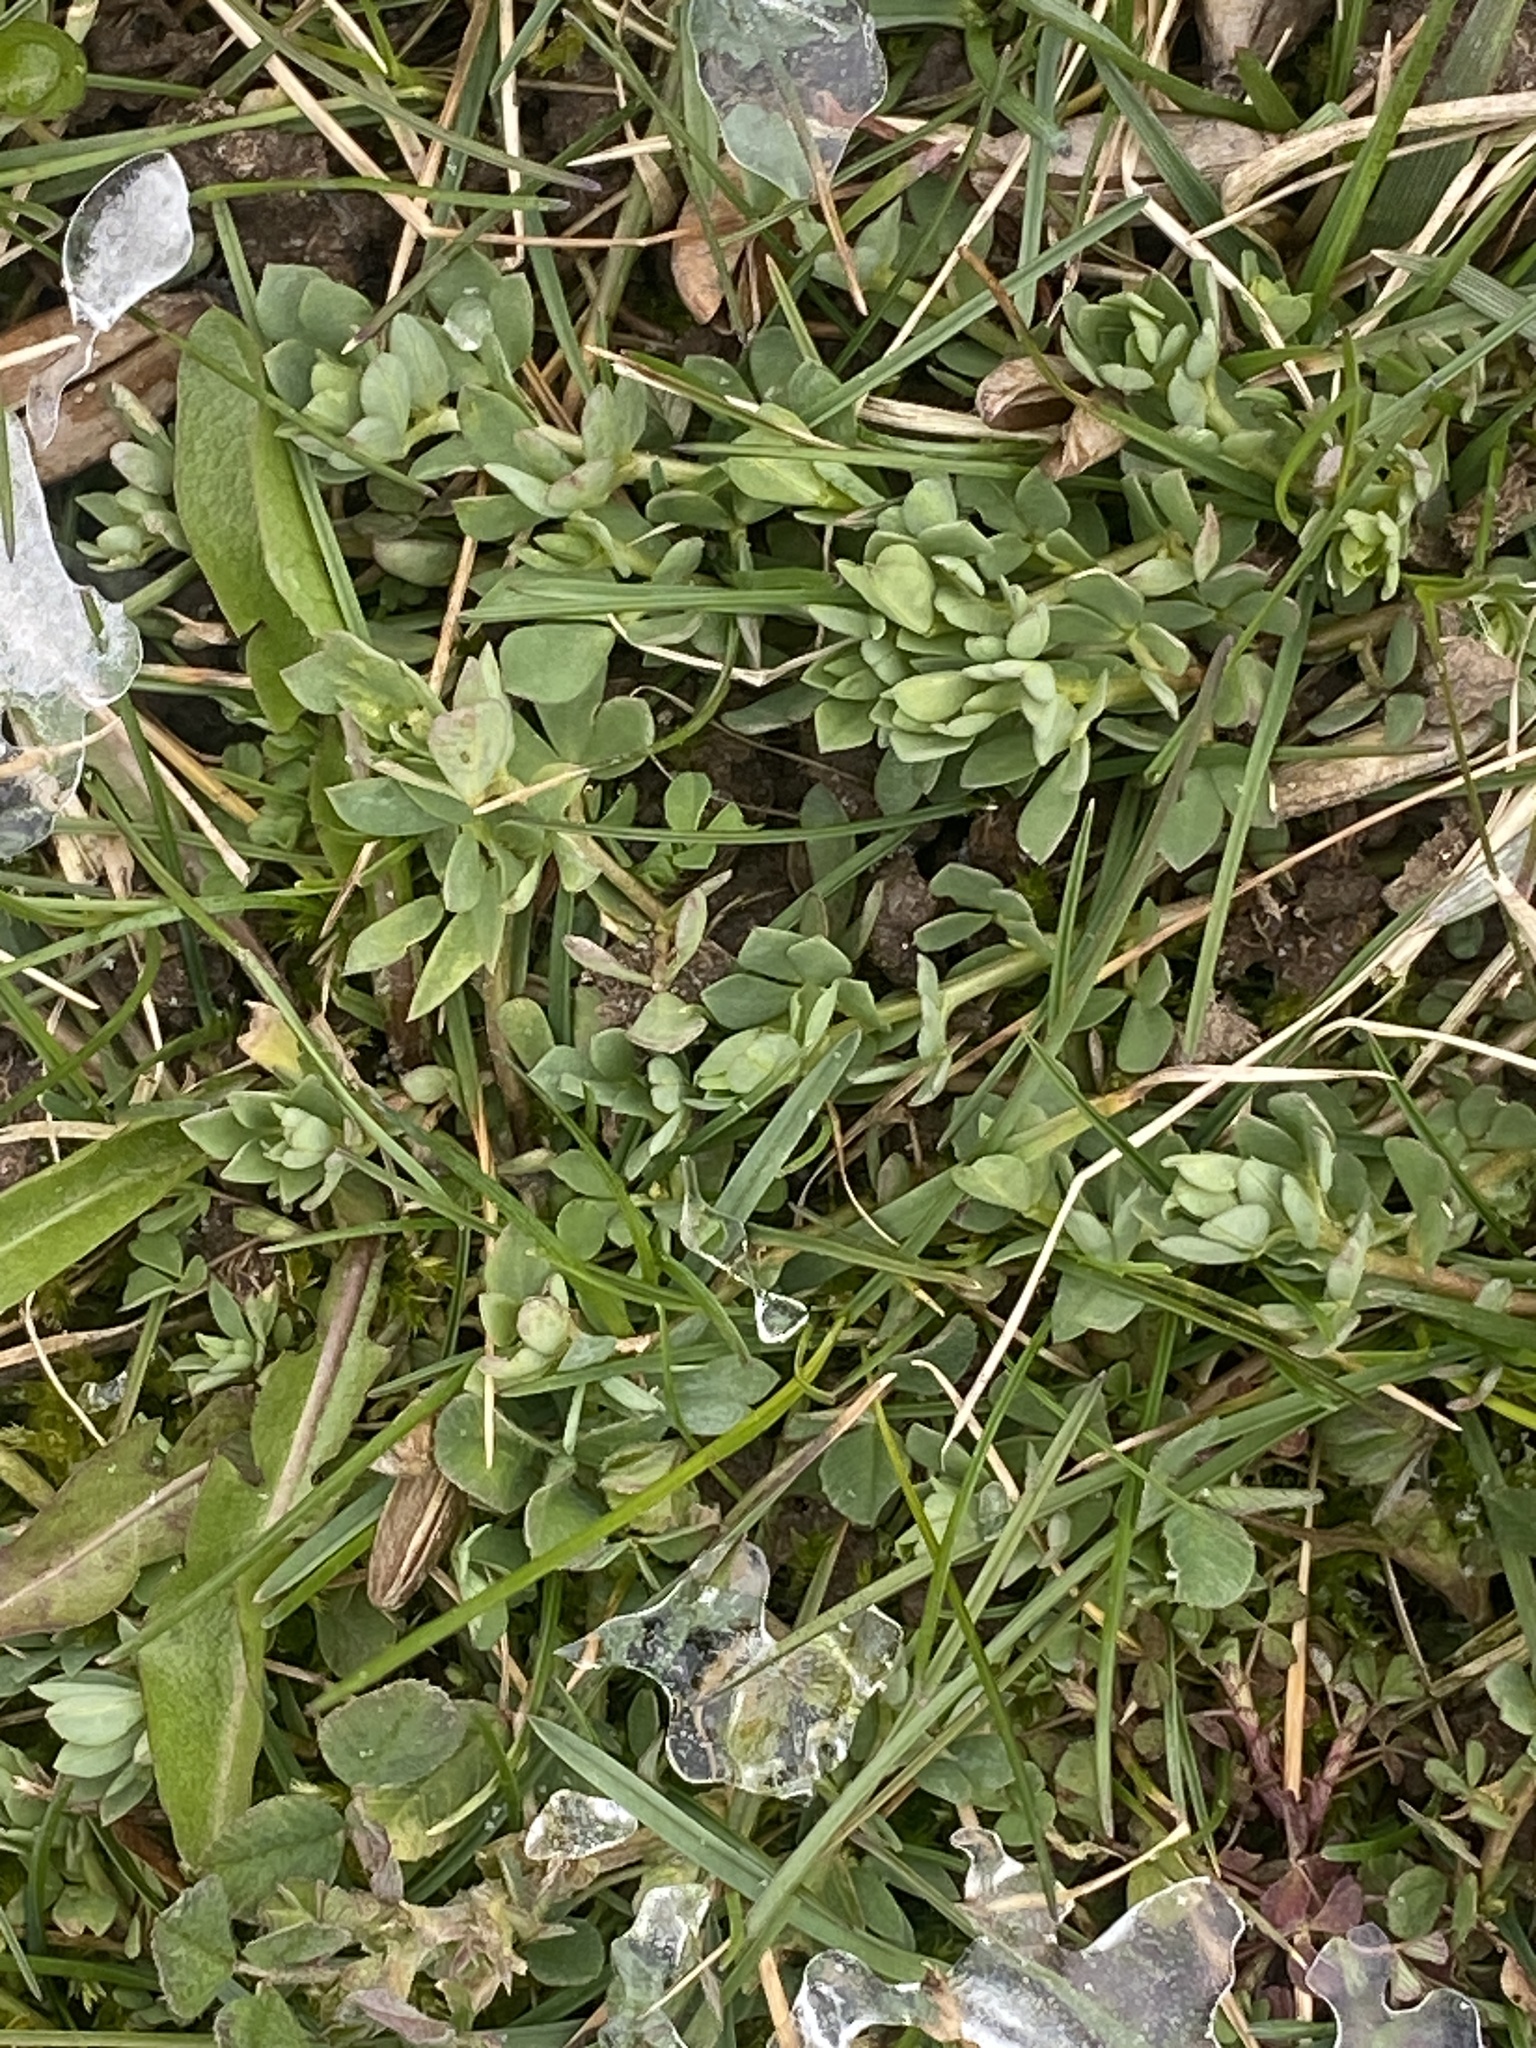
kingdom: Plantae
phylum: Tracheophyta
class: Magnoliopsida
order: Fabales
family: Fabaceae
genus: Lotus
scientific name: Lotus corniculatus
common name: Common bird's-foot-trefoil
